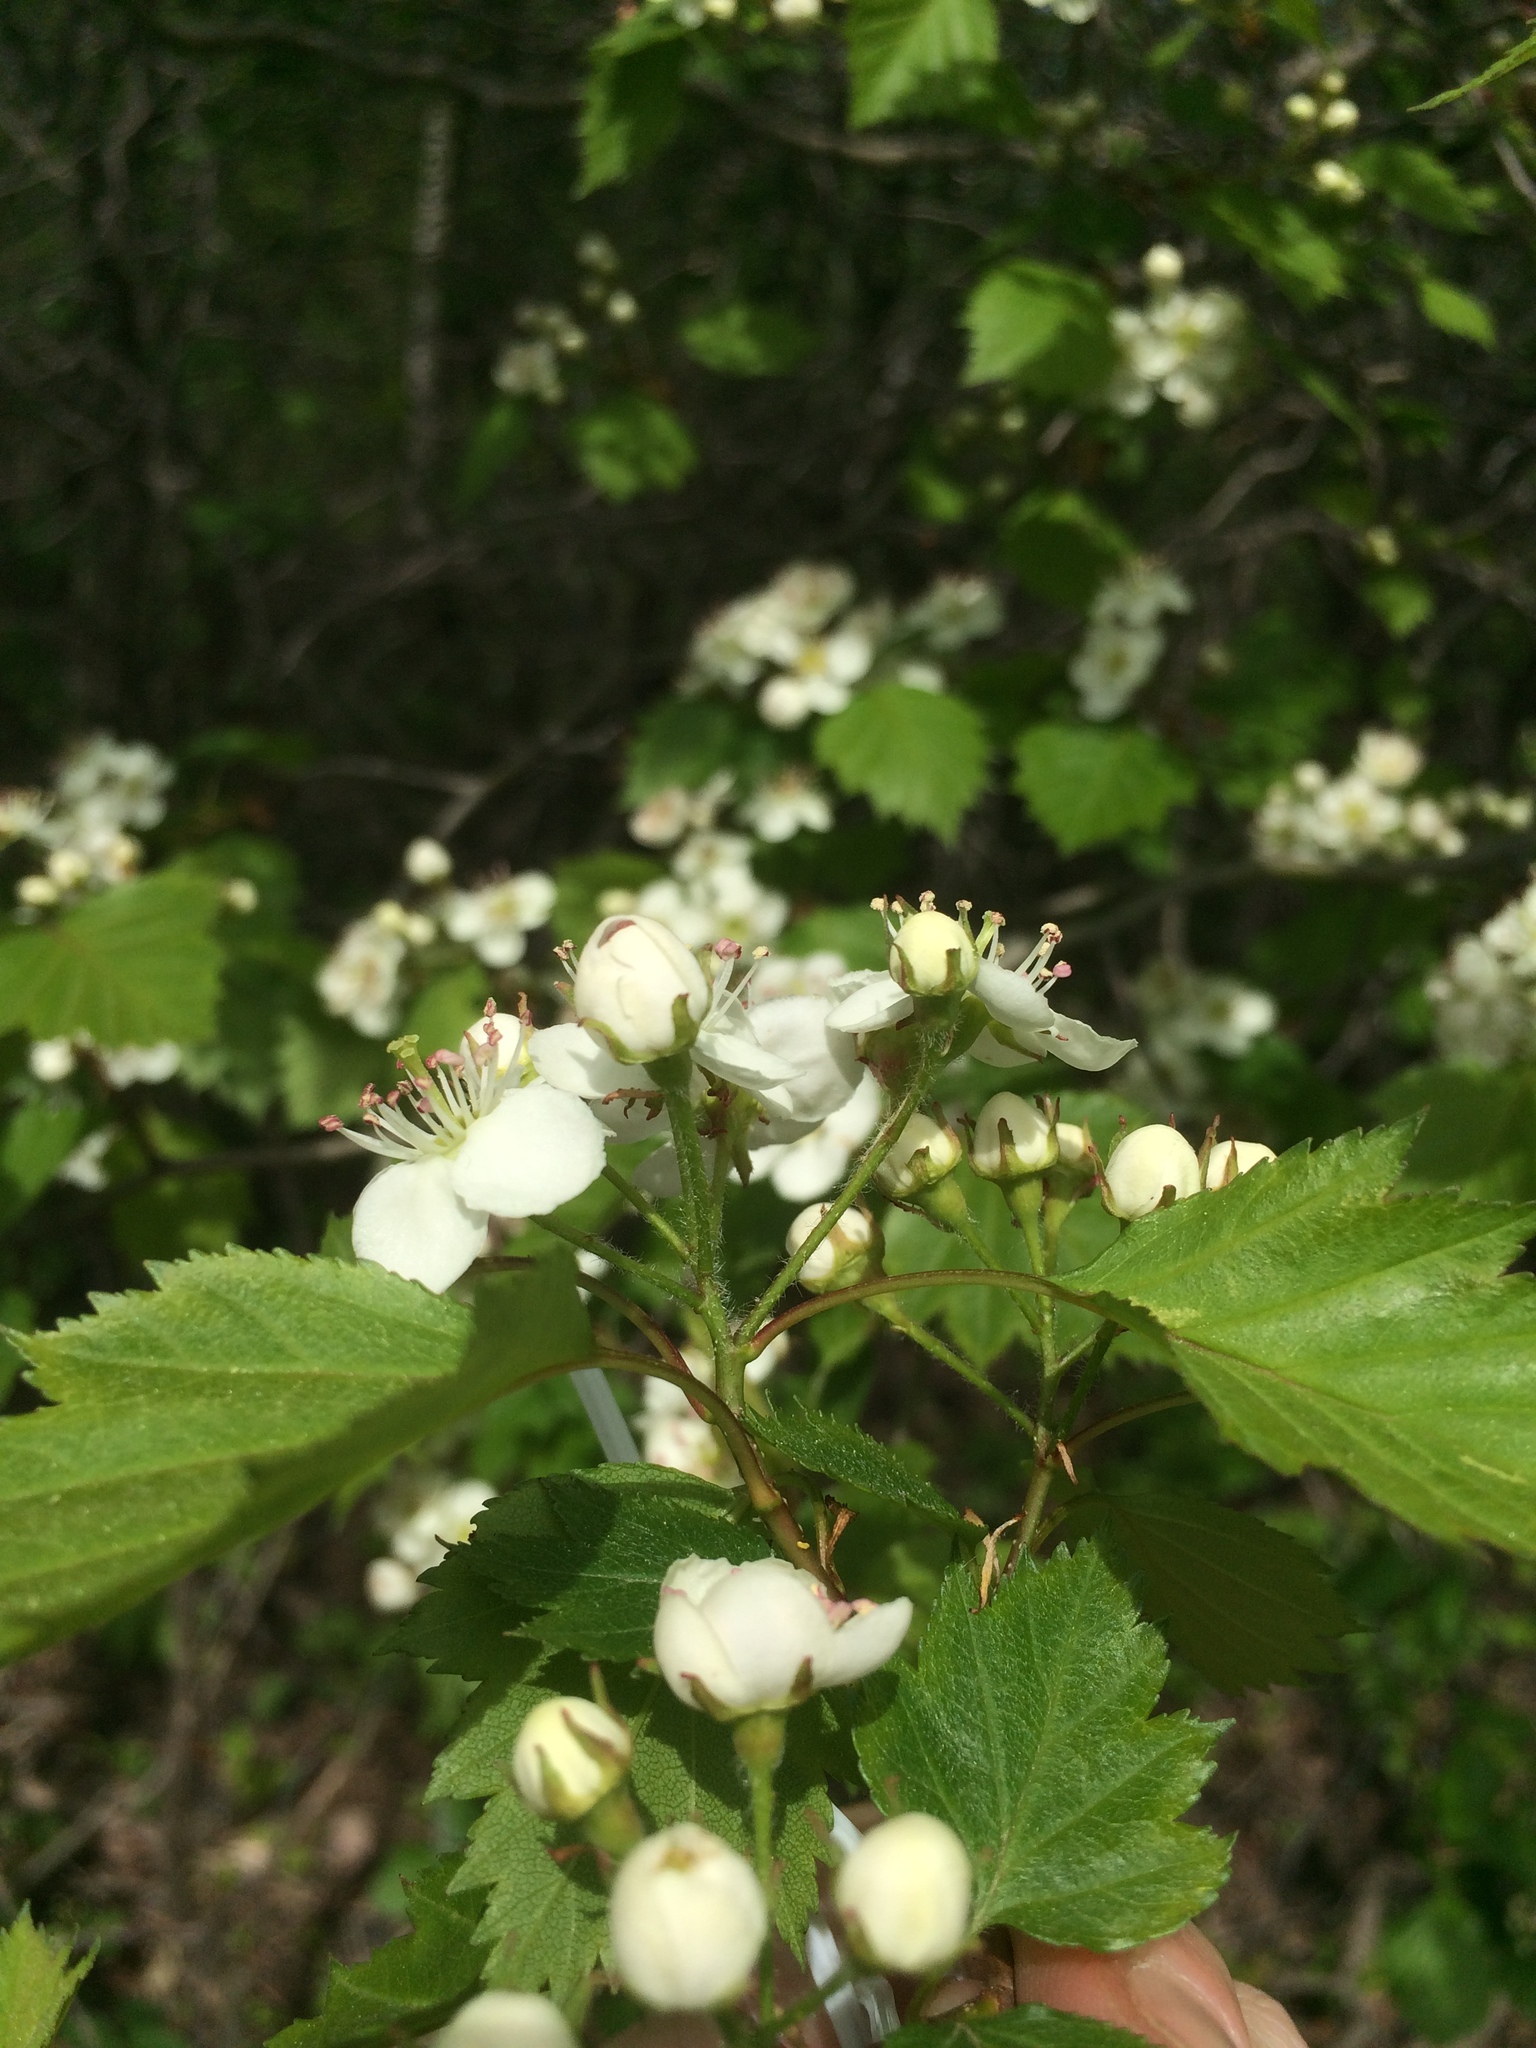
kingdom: Plantae
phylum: Tracheophyta
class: Magnoliopsida
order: Rosales
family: Rosaceae
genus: Crataegus
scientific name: Crataegus flabellata
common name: Bosc's hawthorn
